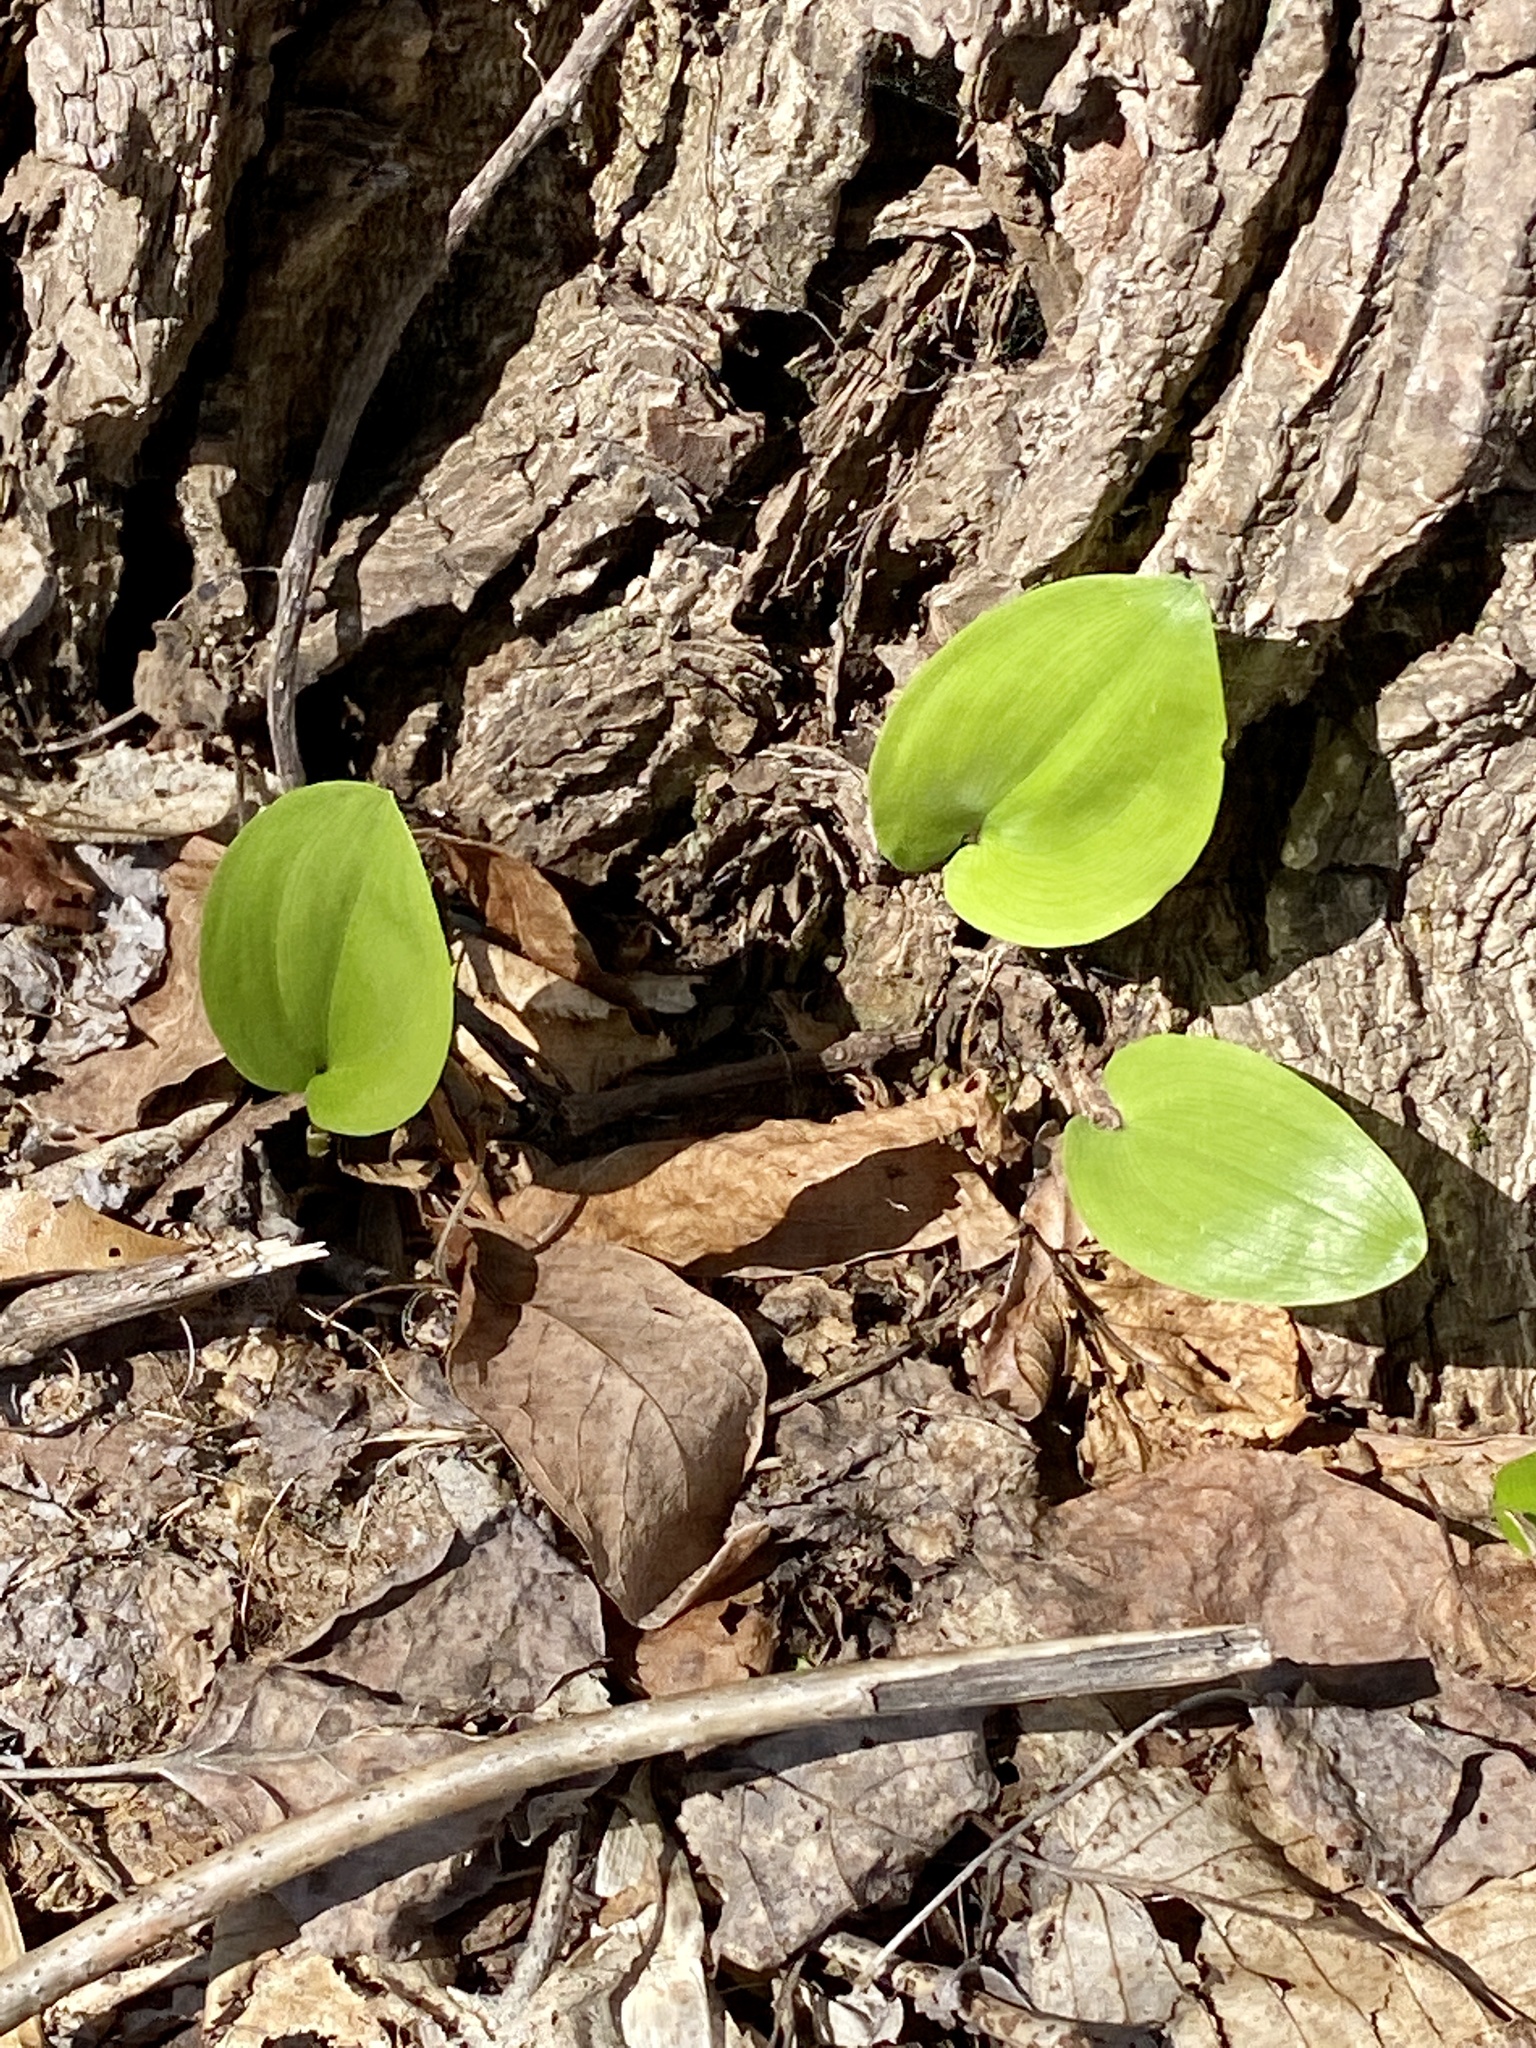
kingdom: Plantae
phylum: Tracheophyta
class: Liliopsida
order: Asparagales
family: Asparagaceae
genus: Maianthemum
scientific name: Maianthemum canadense
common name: False lily-of-the-valley
